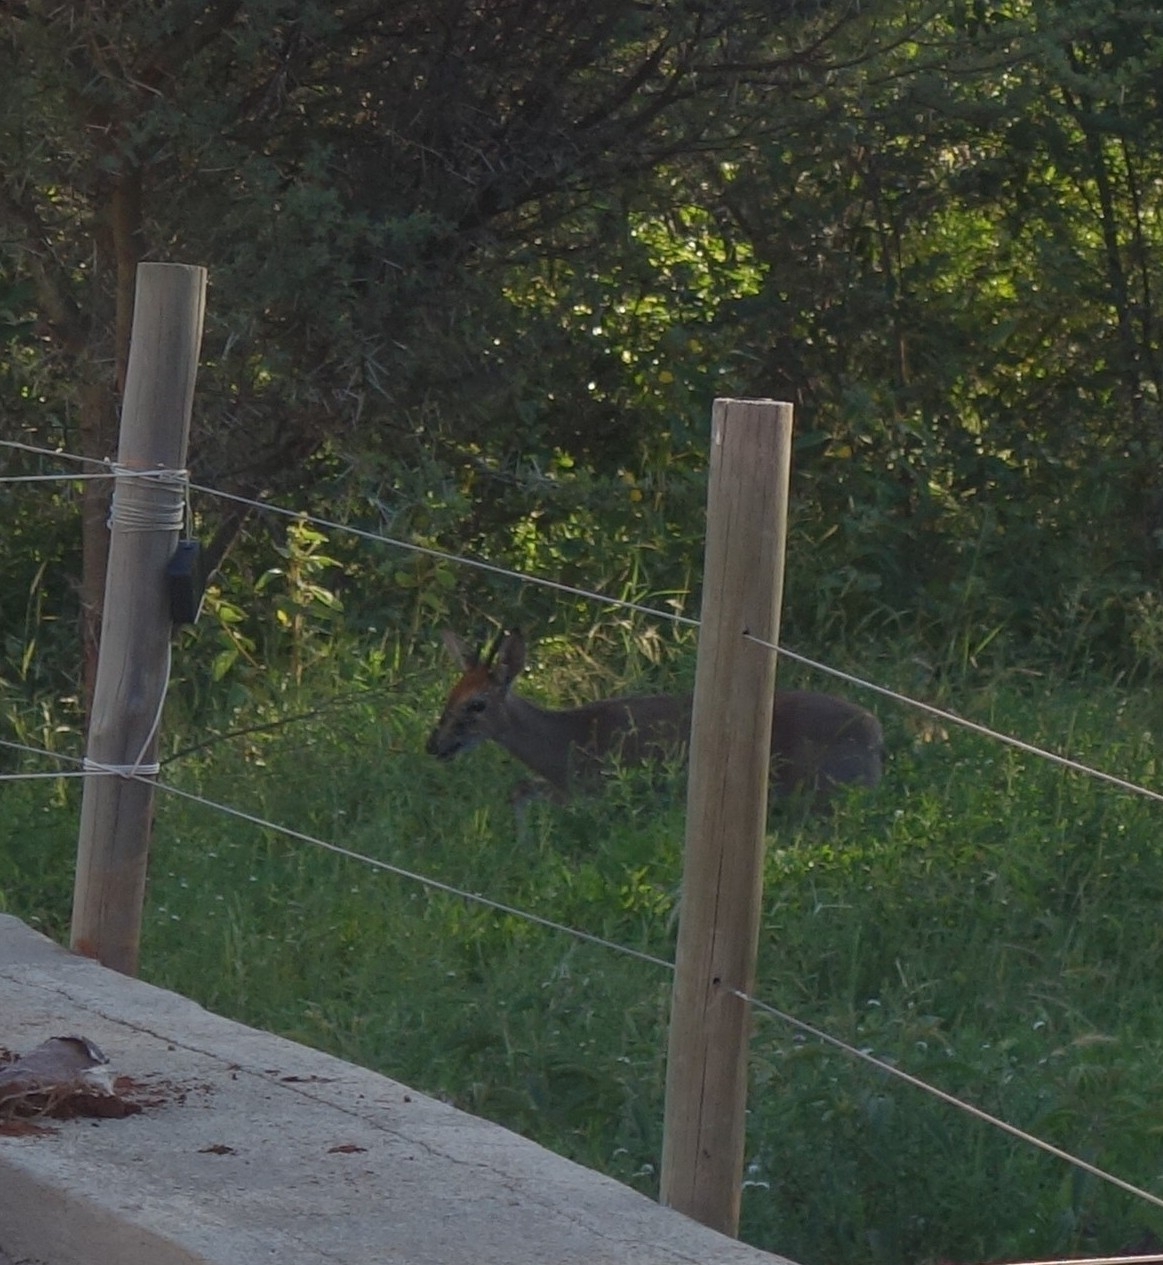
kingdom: Animalia
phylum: Chordata
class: Mammalia
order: Artiodactyla
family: Bovidae
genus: Sylvicapra
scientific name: Sylvicapra grimmia
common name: Bush duiker
